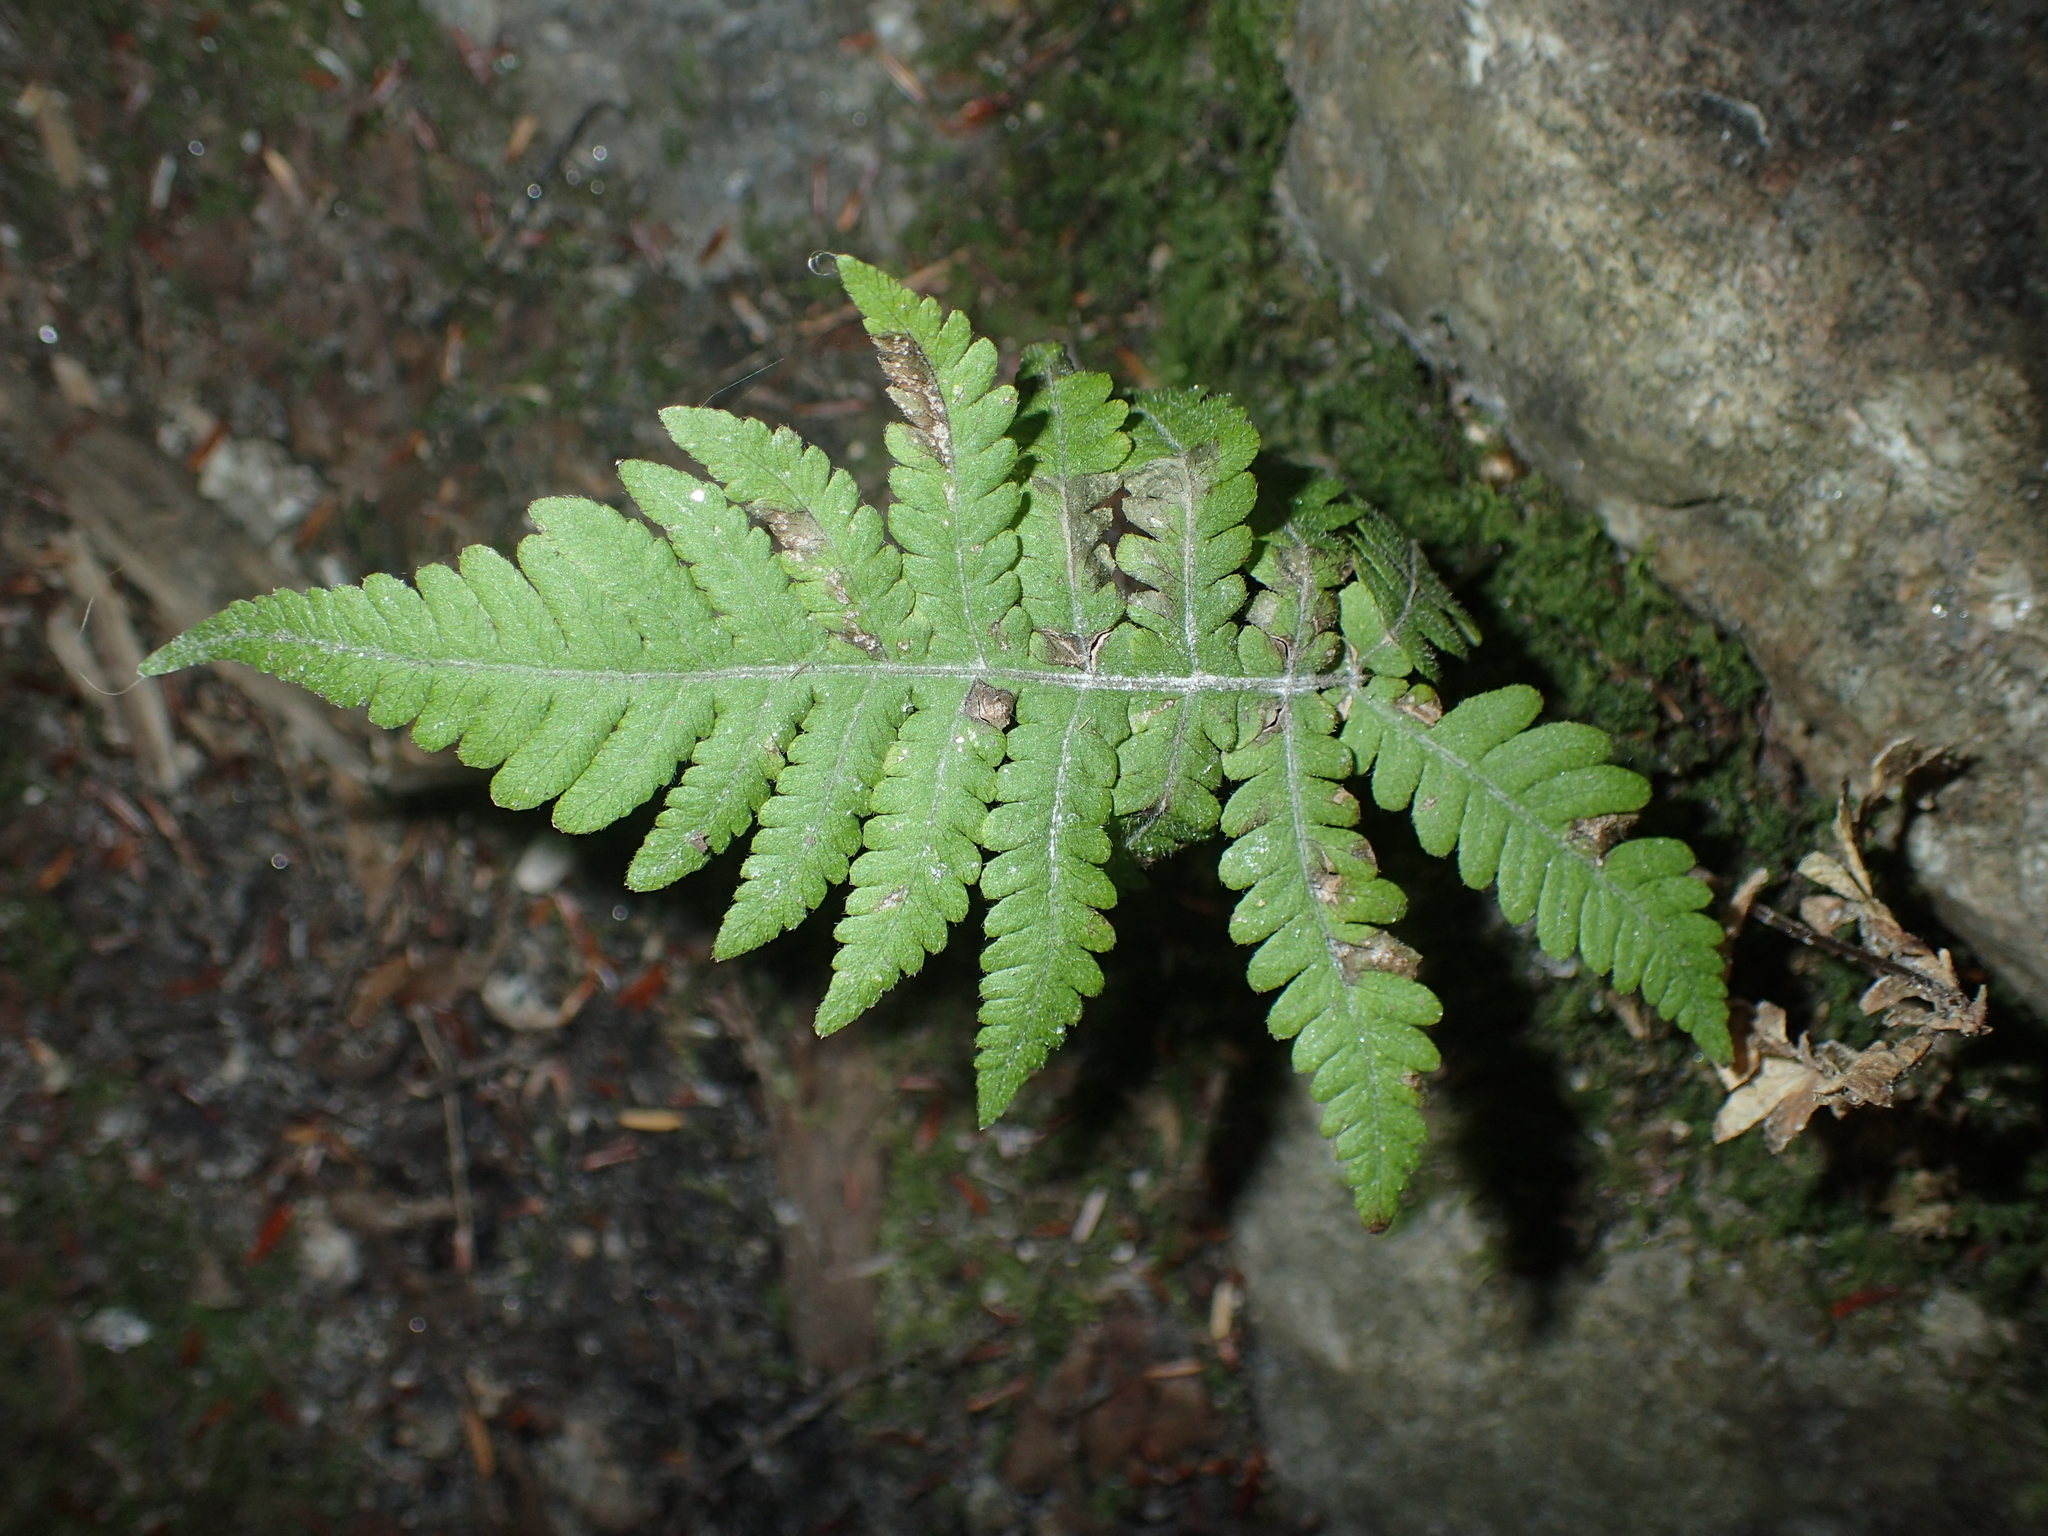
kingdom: Plantae
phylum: Tracheophyta
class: Polypodiopsida
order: Polypodiales
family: Thelypteridaceae
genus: Phegopteris
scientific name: Phegopteris connectilis
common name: Beech fern
